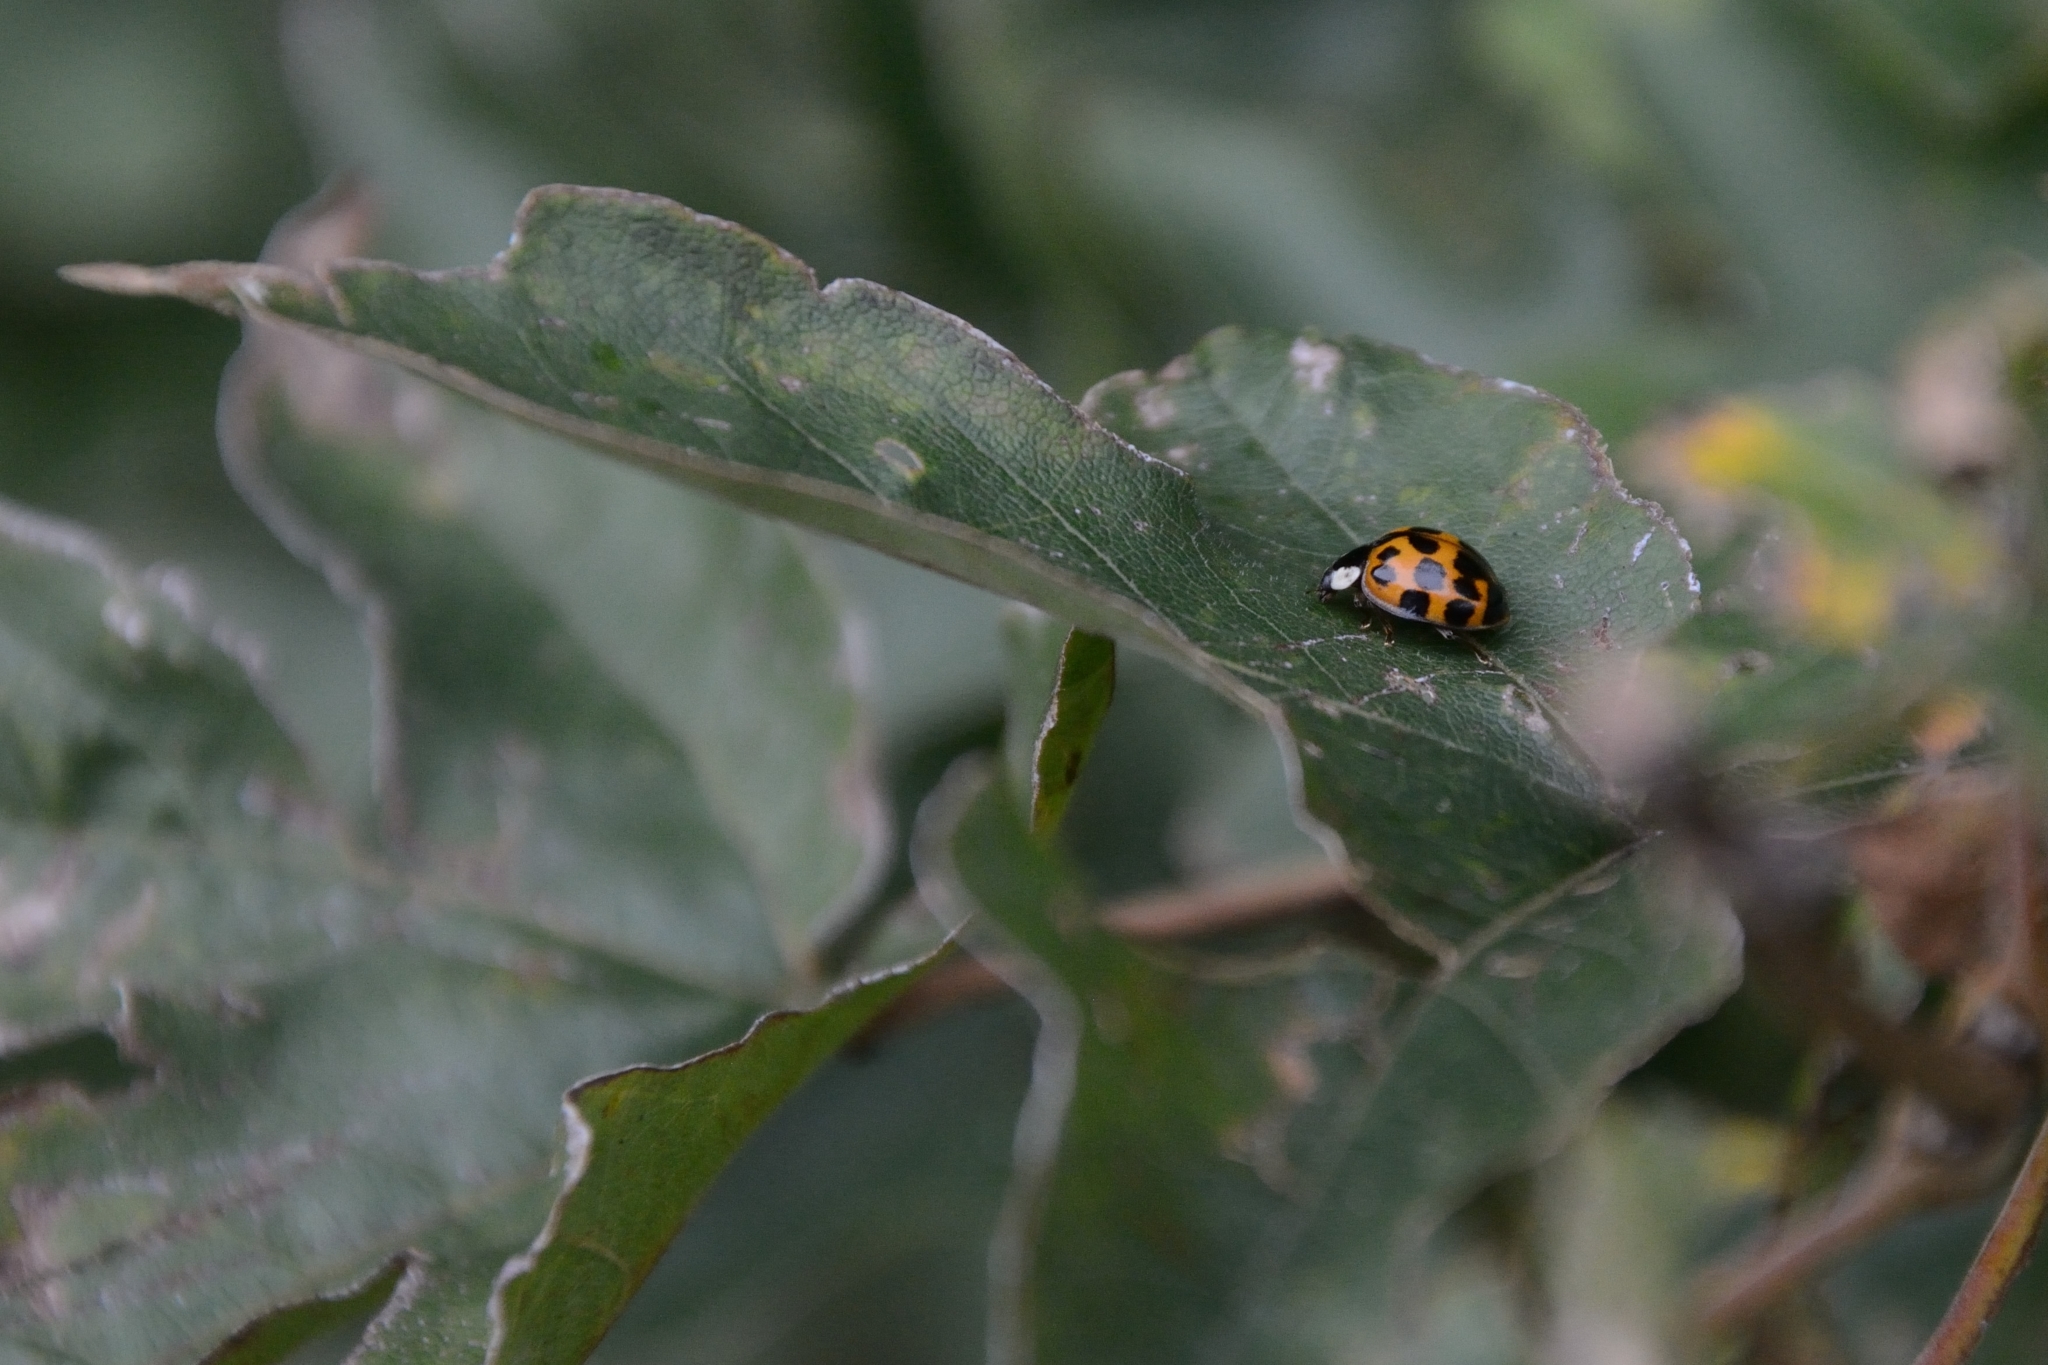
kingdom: Animalia
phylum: Arthropoda
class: Insecta
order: Coleoptera
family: Coccinellidae
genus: Harmonia
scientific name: Harmonia axyridis
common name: Harlequin ladybird
